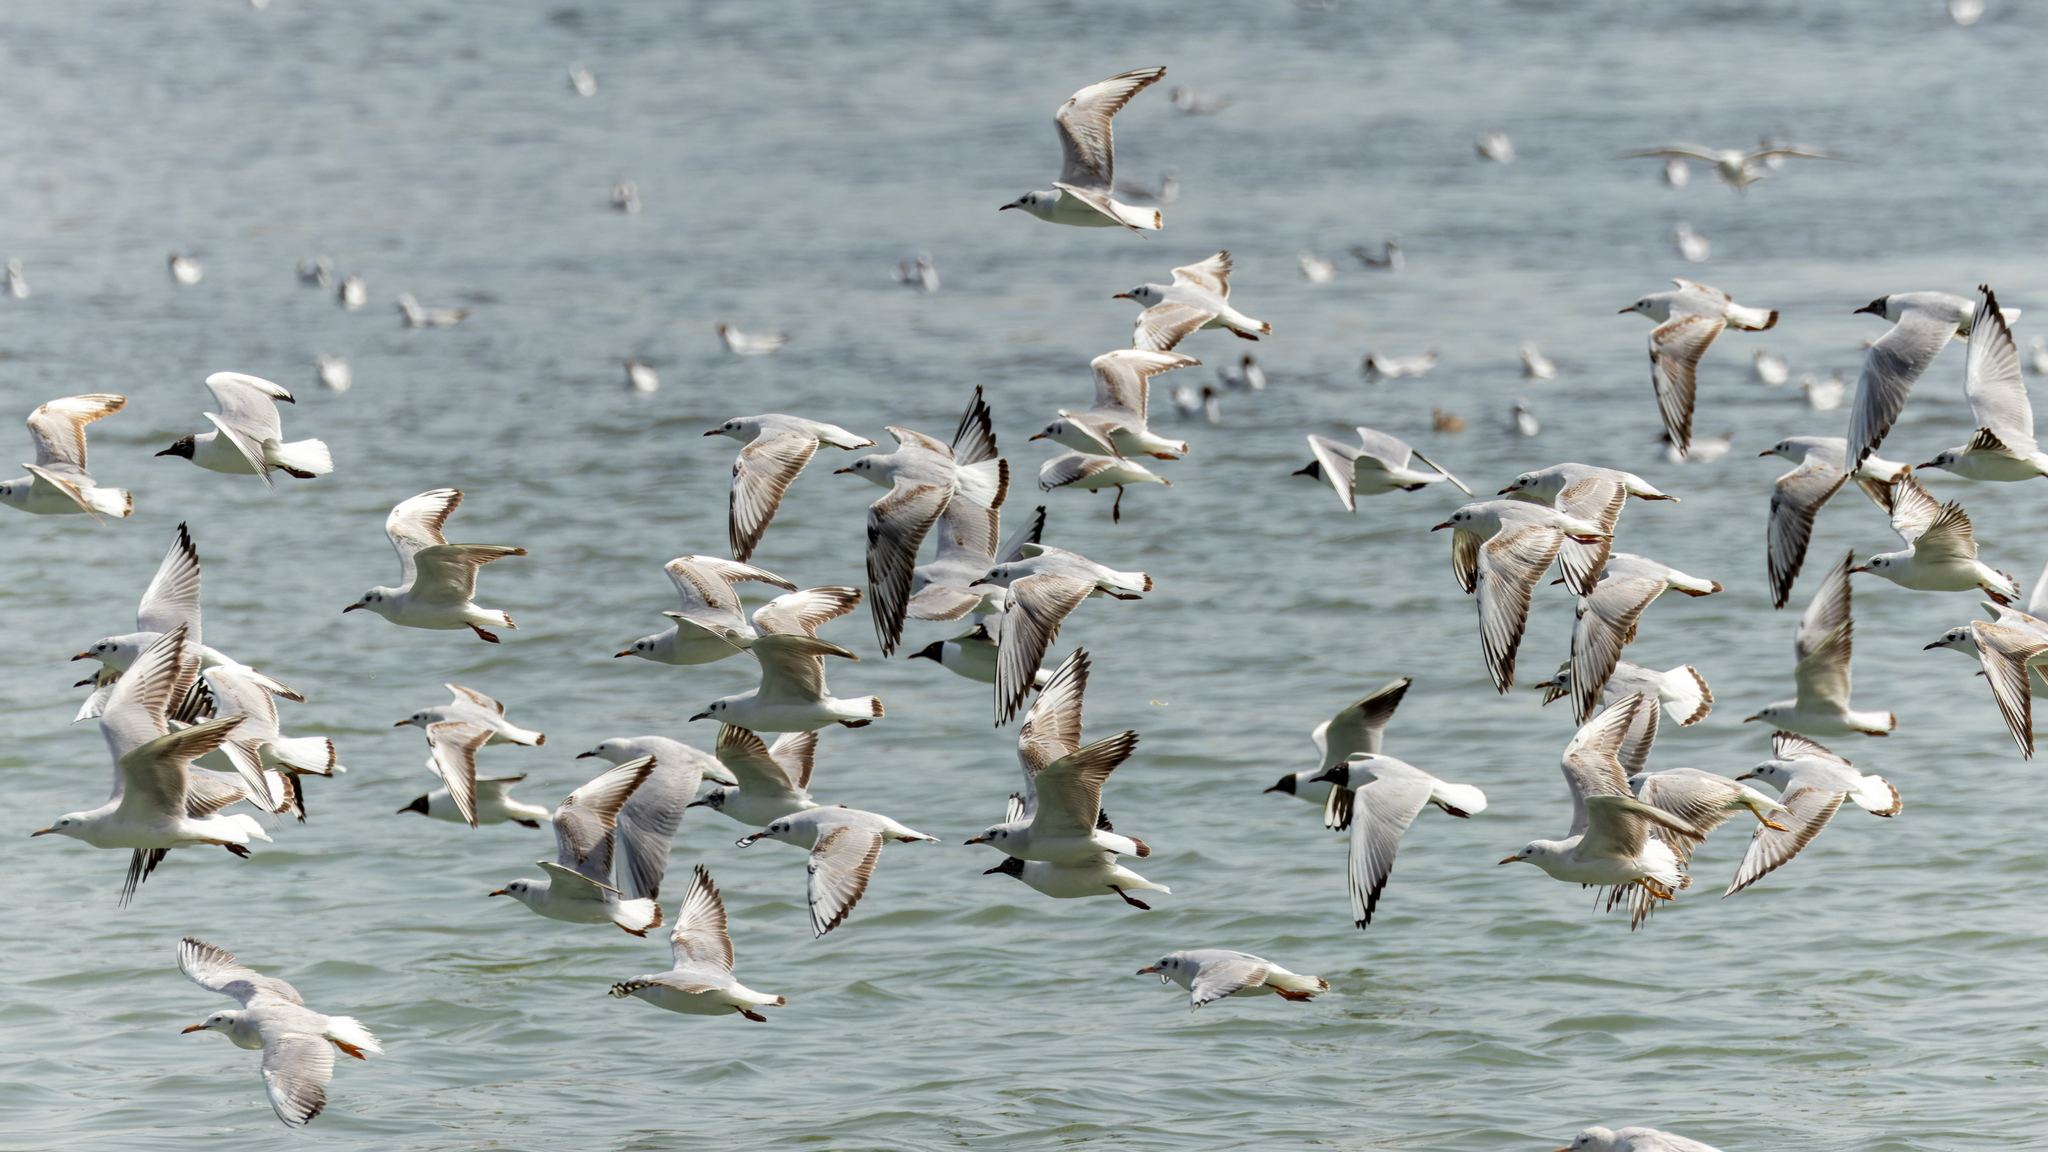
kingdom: Animalia
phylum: Chordata
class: Aves
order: Charadriiformes
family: Laridae
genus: Chroicocephalus
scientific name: Chroicocephalus ridibundus
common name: Black-headed gull
